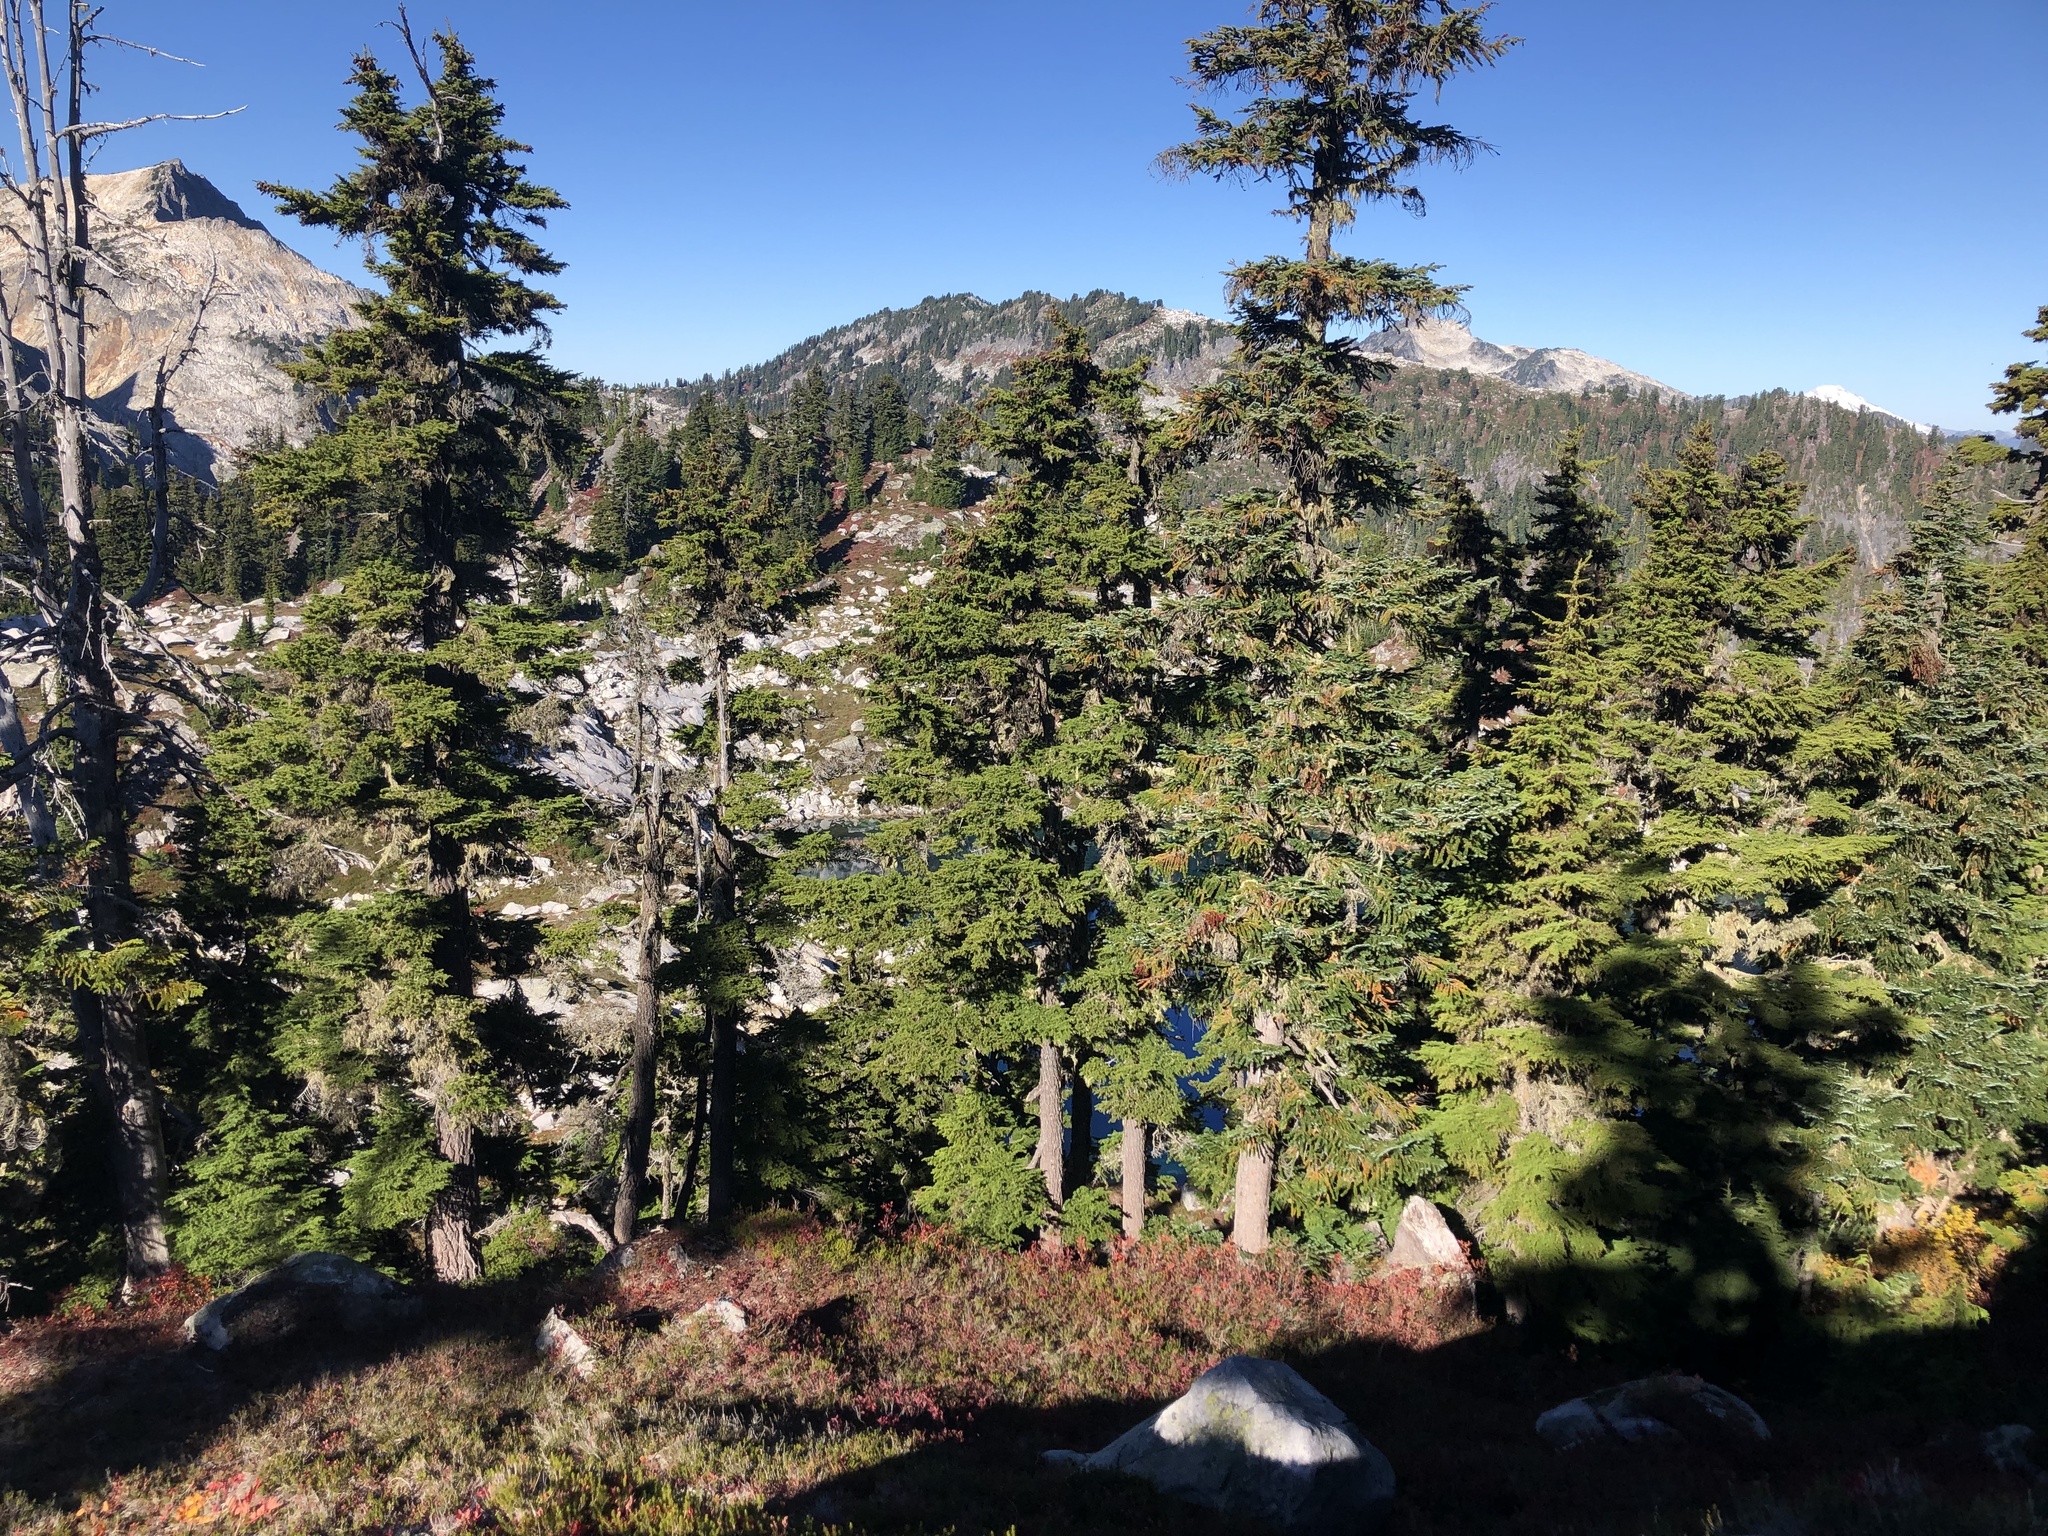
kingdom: Plantae
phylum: Tracheophyta
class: Pinopsida
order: Pinales
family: Pinaceae
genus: Tsuga
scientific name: Tsuga mertensiana
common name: Mountain hemlock
